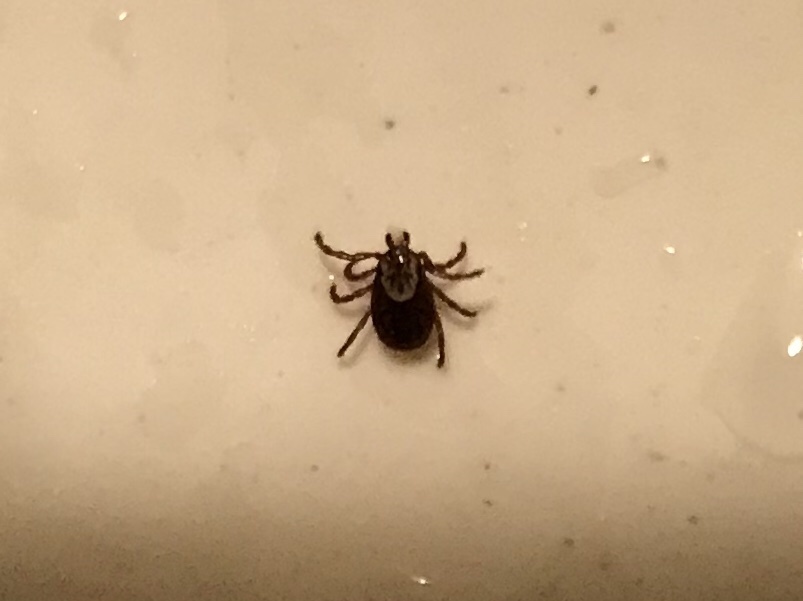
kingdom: Animalia
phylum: Arthropoda
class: Arachnida
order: Ixodida
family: Ixodidae
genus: Dermacentor
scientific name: Dermacentor variabilis
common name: American dog tick
